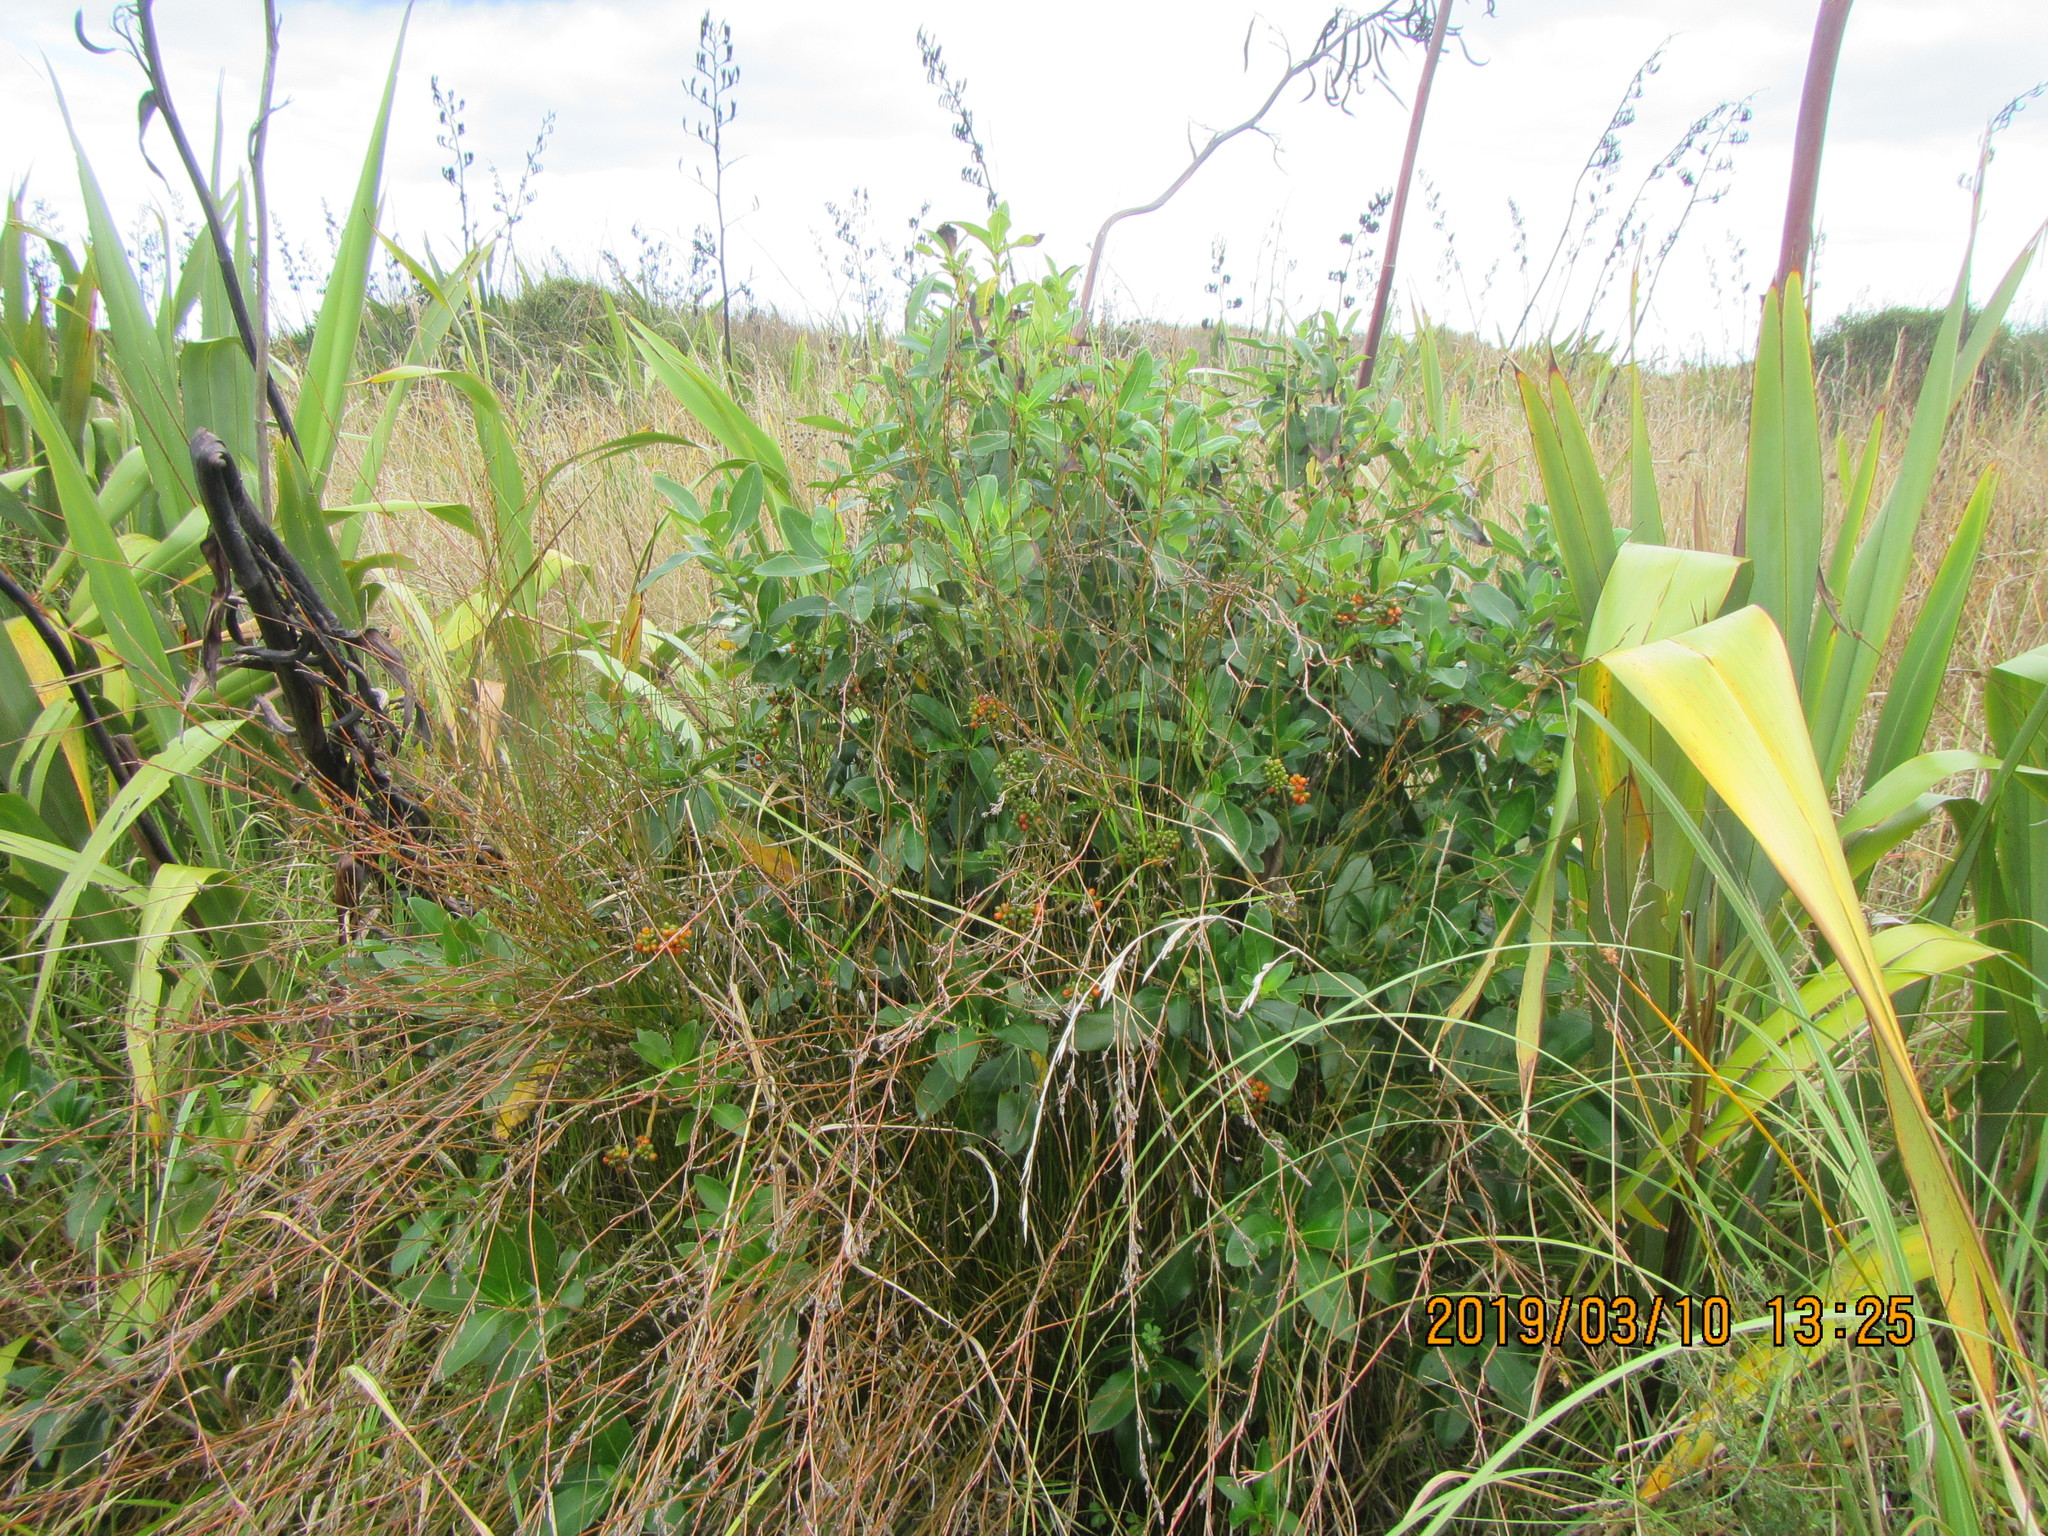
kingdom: Plantae
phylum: Tracheophyta
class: Magnoliopsida
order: Gentianales
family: Rubiaceae
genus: Coprosma
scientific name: Coprosma robusta
